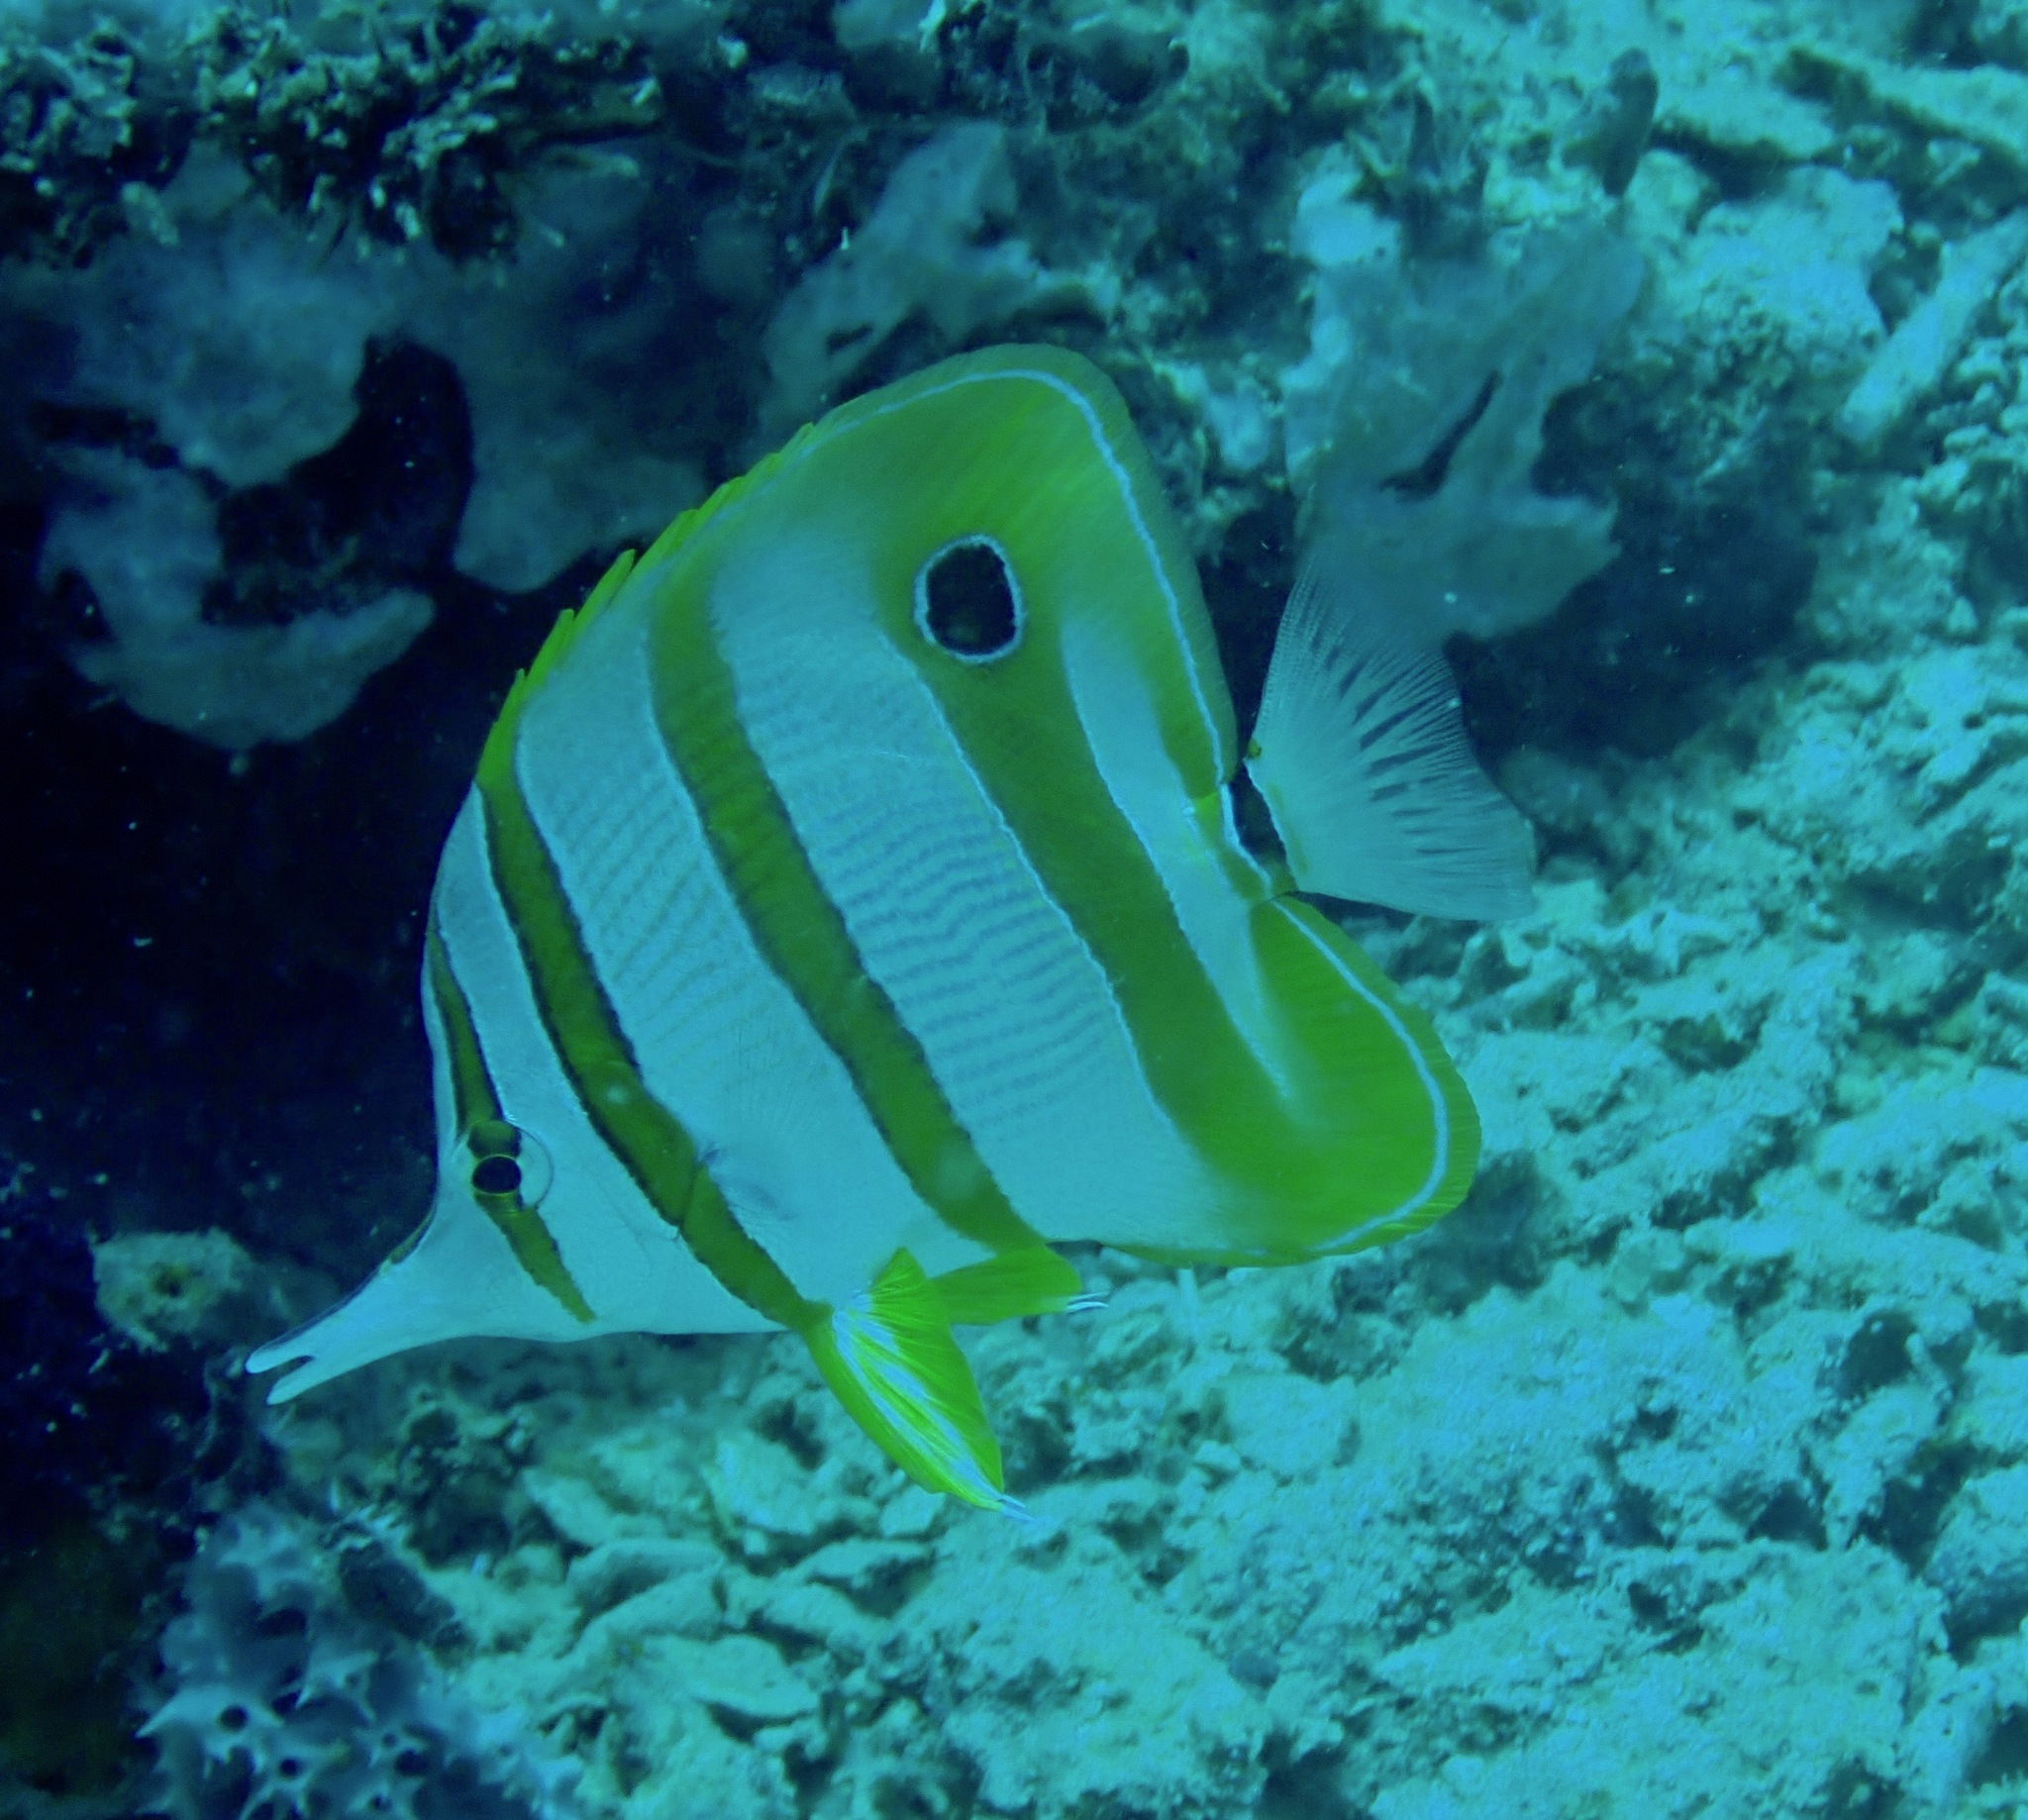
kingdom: Animalia
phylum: Chordata
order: Perciformes
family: Chaetodontidae
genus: Chelmon
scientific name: Chelmon rostratus
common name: Beaked butterflyfish
